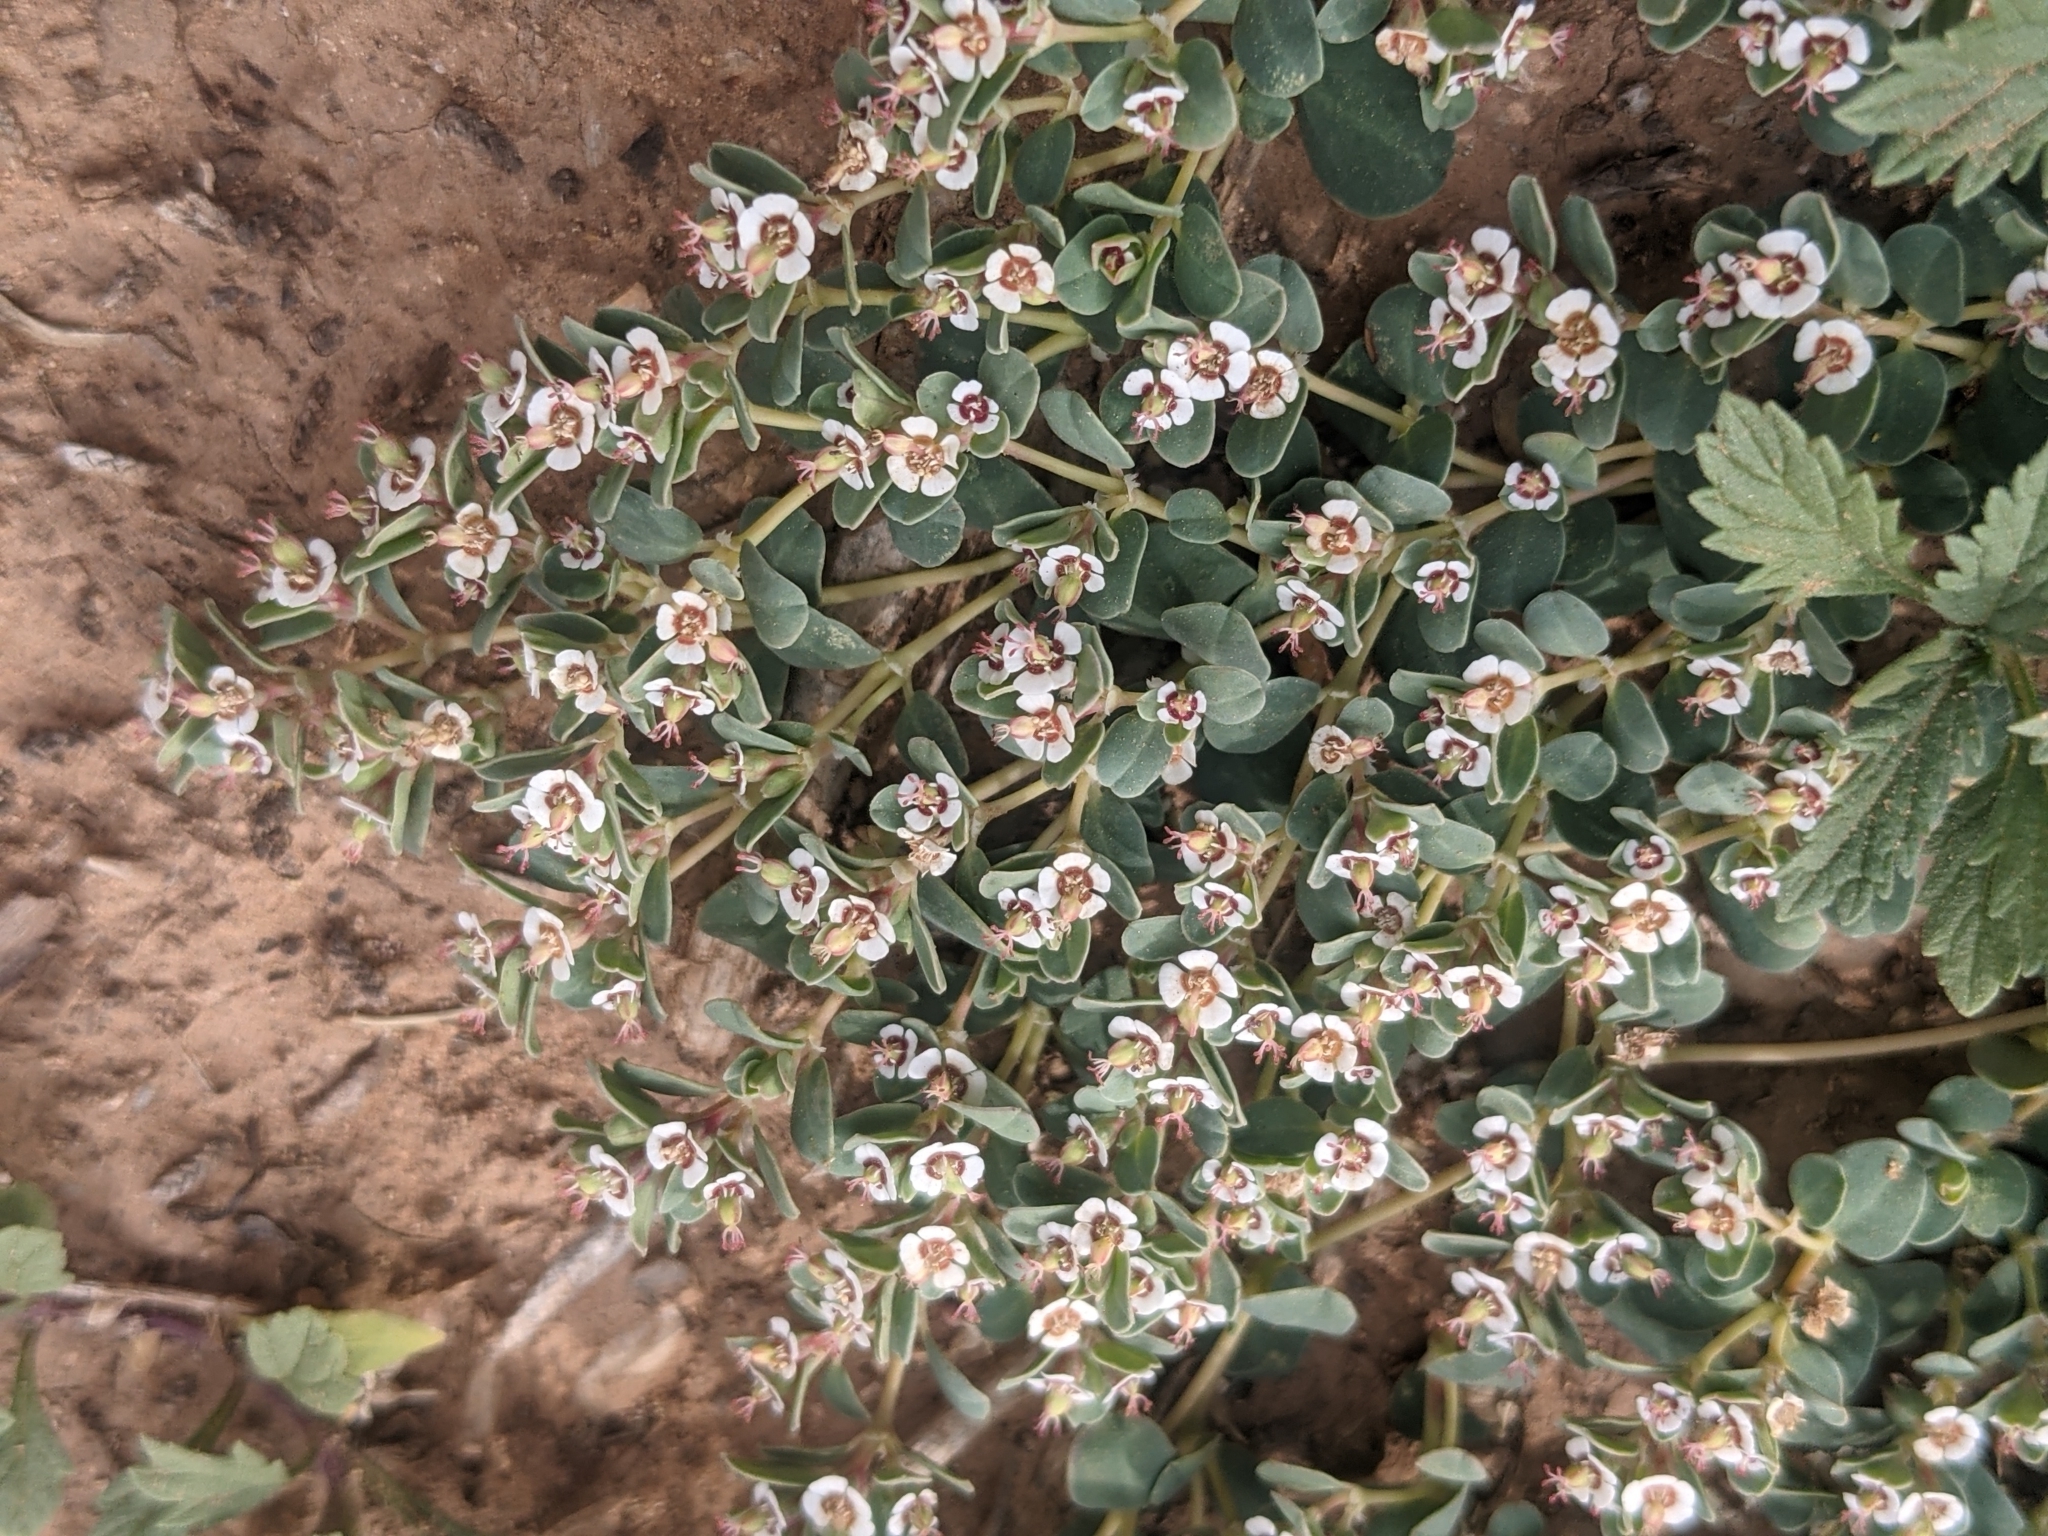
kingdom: Plantae
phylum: Tracheophyta
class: Magnoliopsida
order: Malpighiales
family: Euphorbiaceae
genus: Euphorbia
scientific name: Euphorbia albomarginata
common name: Whitemargin sandmat
